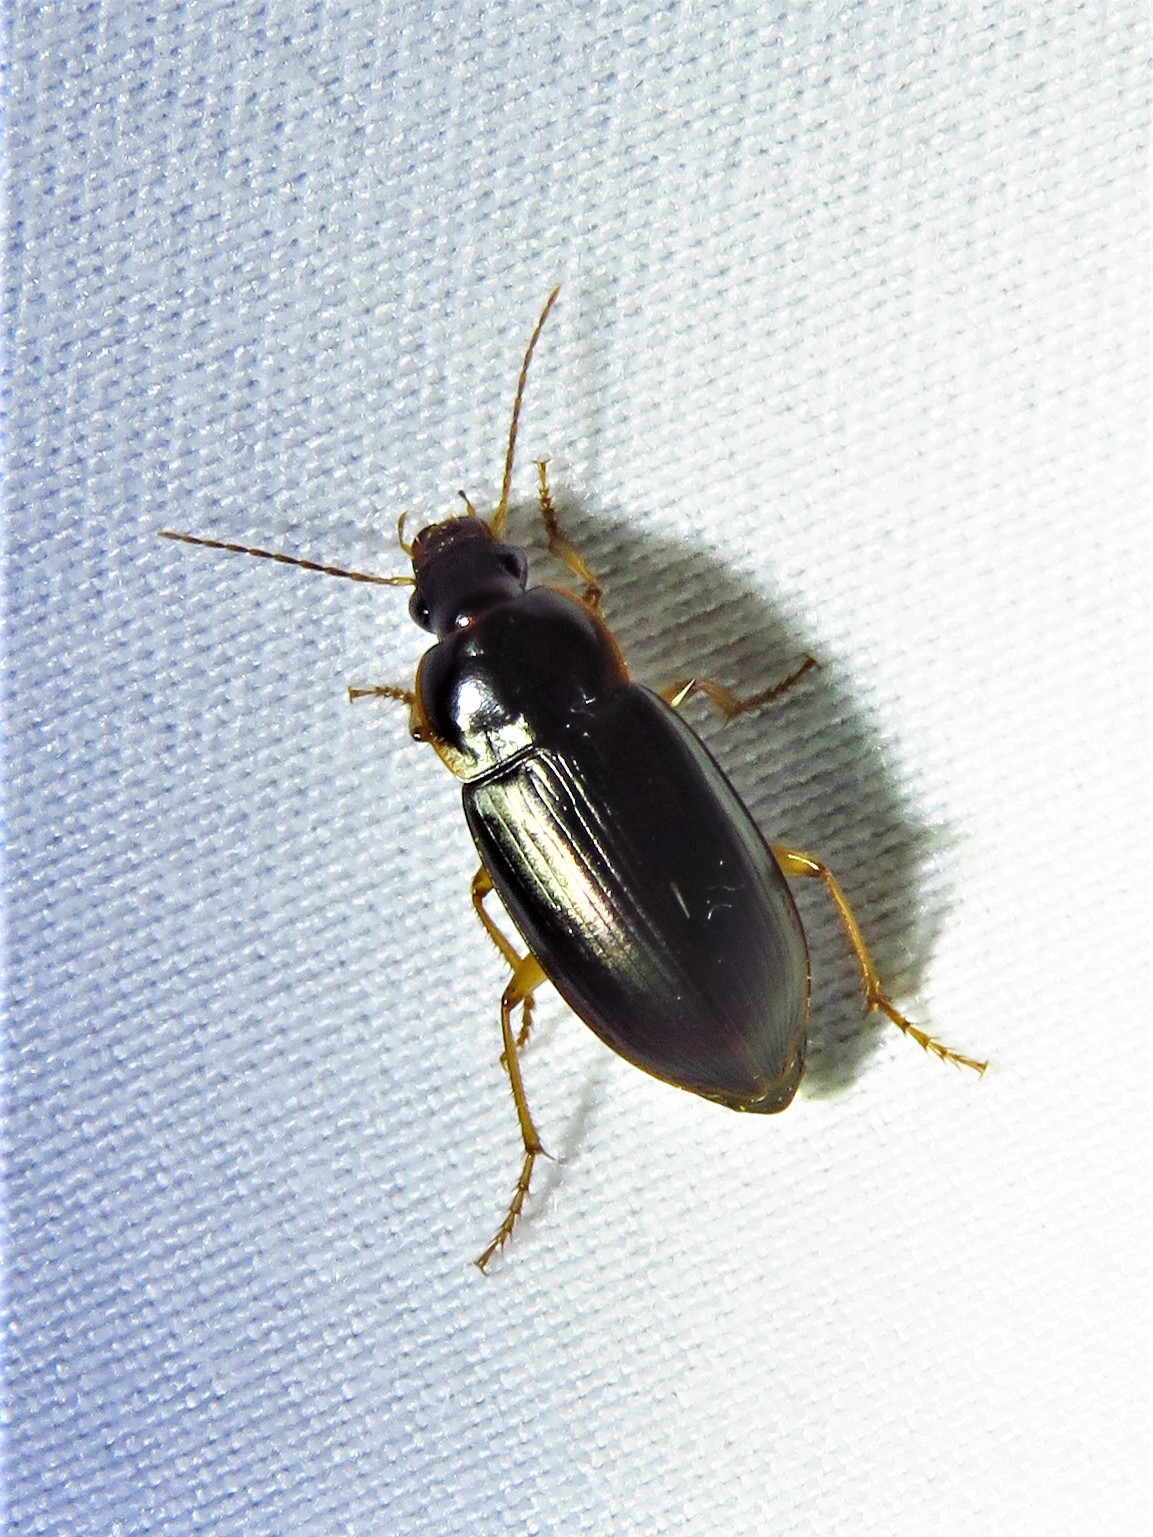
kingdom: Animalia
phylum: Arthropoda
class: Insecta
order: Coleoptera
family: Carabidae
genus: Notiobia
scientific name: Notiobia terminata
